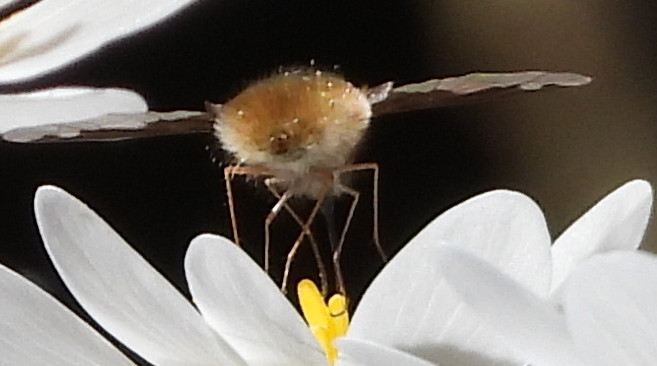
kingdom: Animalia
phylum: Arthropoda
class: Insecta
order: Diptera
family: Bombyliidae
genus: Bombylius
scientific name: Bombylius major
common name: Bee fly
